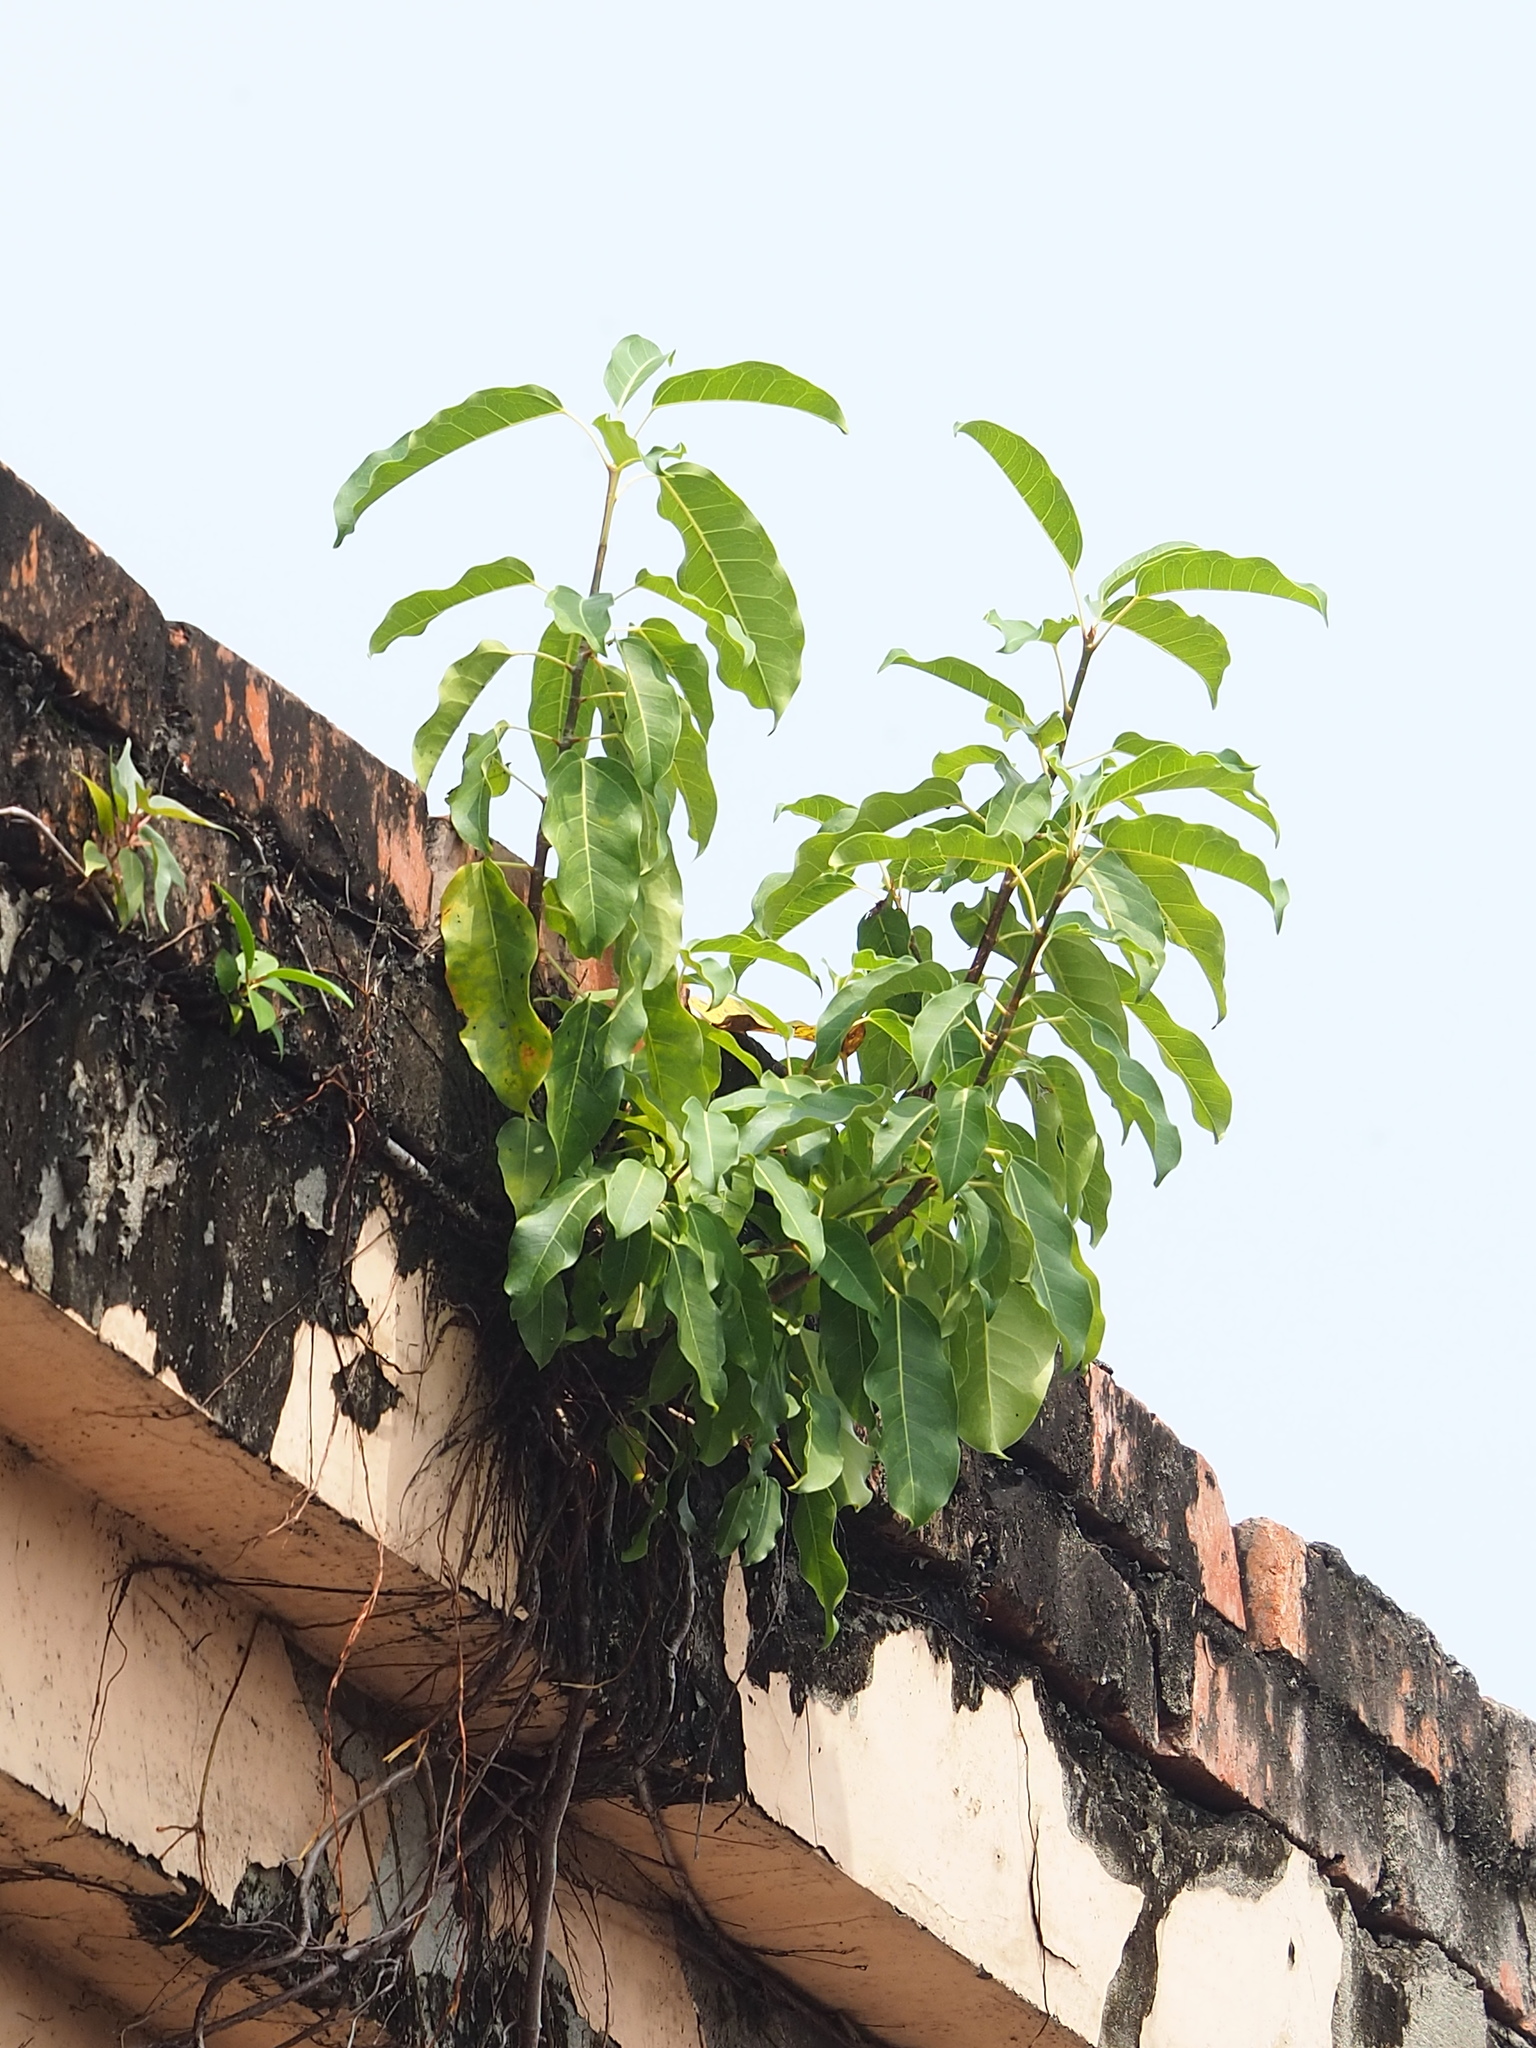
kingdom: Plantae
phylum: Tracheophyta
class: Magnoliopsida
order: Rosales
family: Moraceae
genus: Ficus
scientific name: Ficus subpisocarpa
